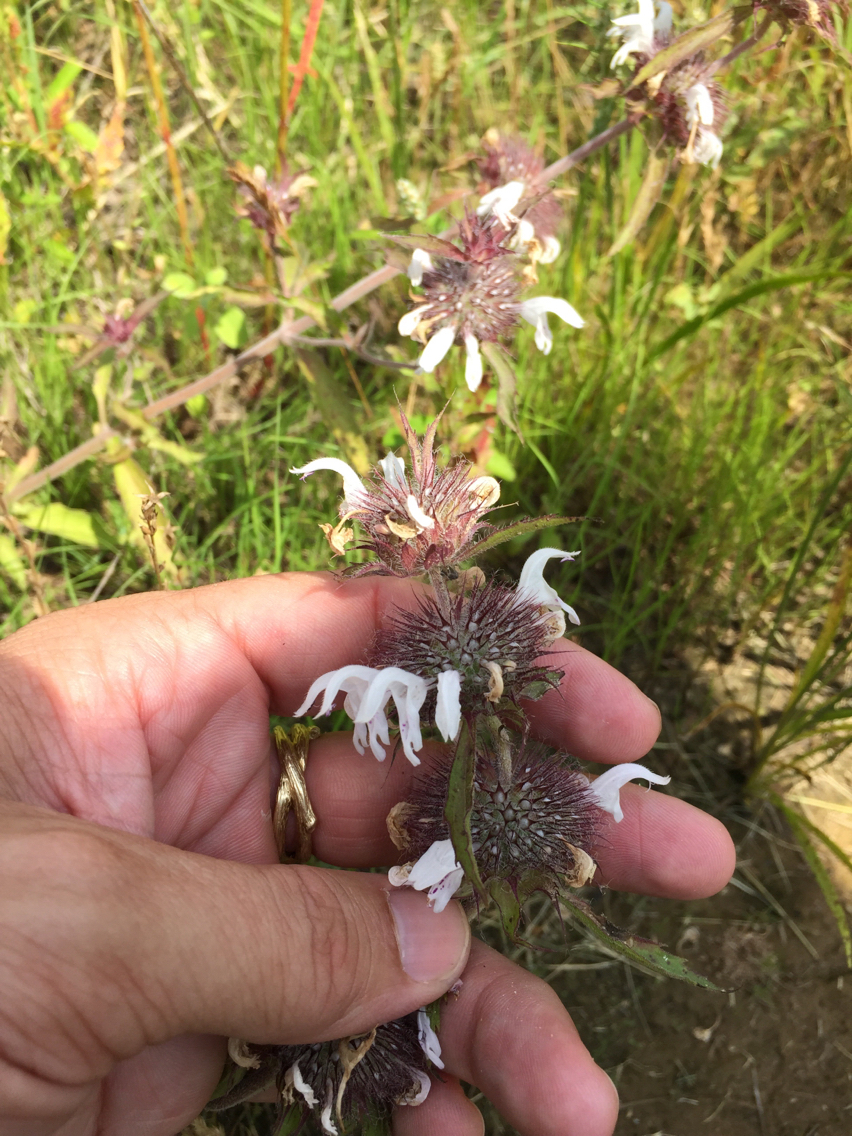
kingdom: Plantae
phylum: Tracheophyta
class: Magnoliopsida
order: Lamiales
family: Lamiaceae
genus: Monarda
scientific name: Monarda clinopodioides
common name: Basil beebalm
